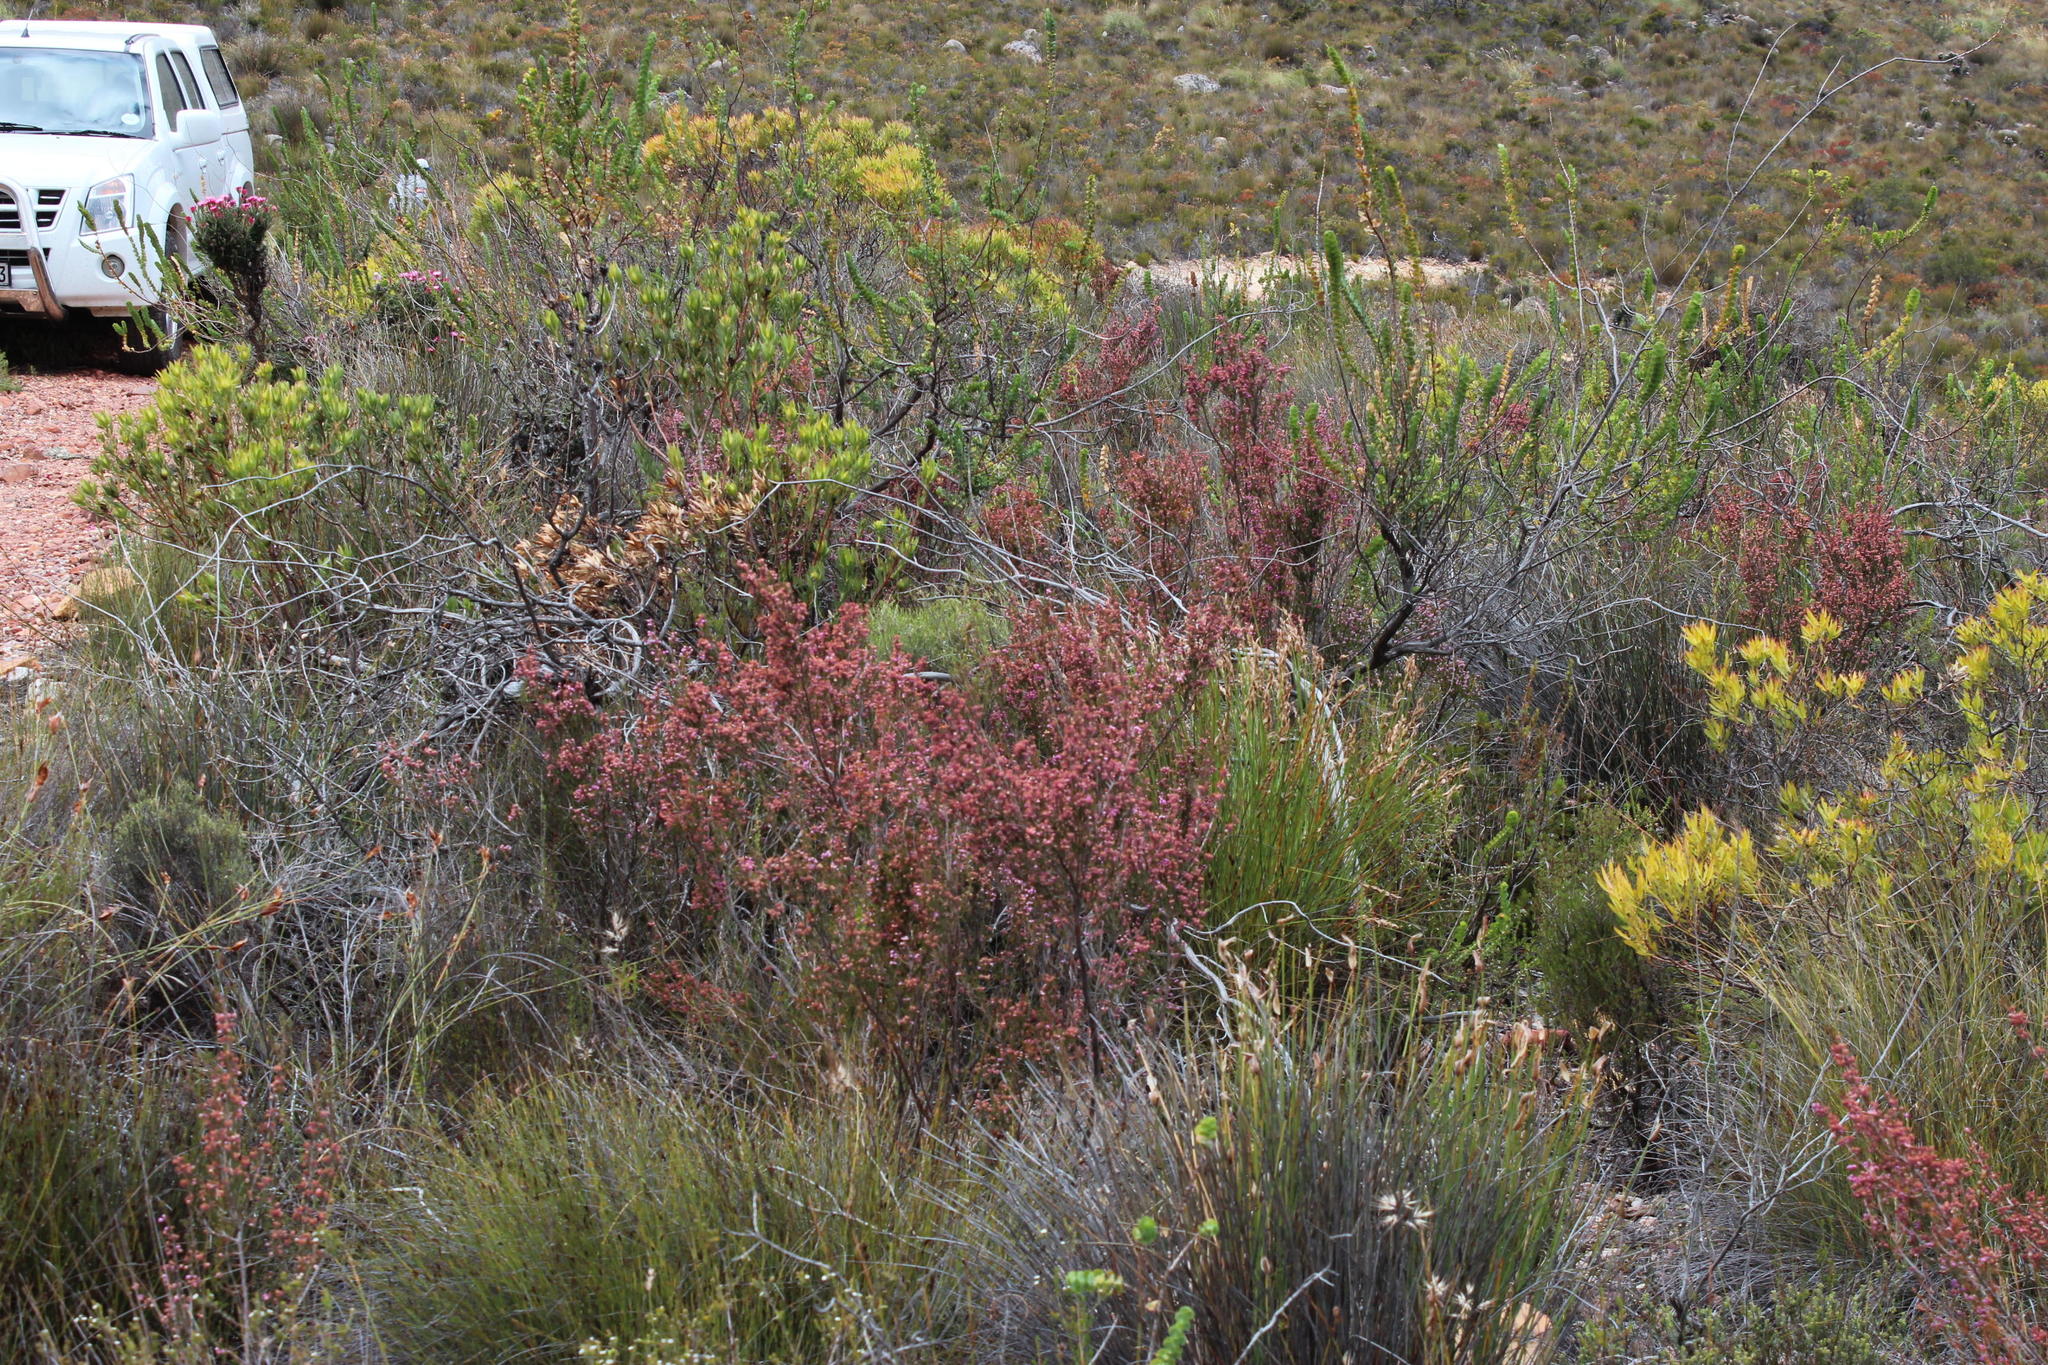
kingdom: Plantae
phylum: Tracheophyta
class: Magnoliopsida
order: Ericales
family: Ericaceae
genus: Erica
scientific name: Erica selaginifolia
